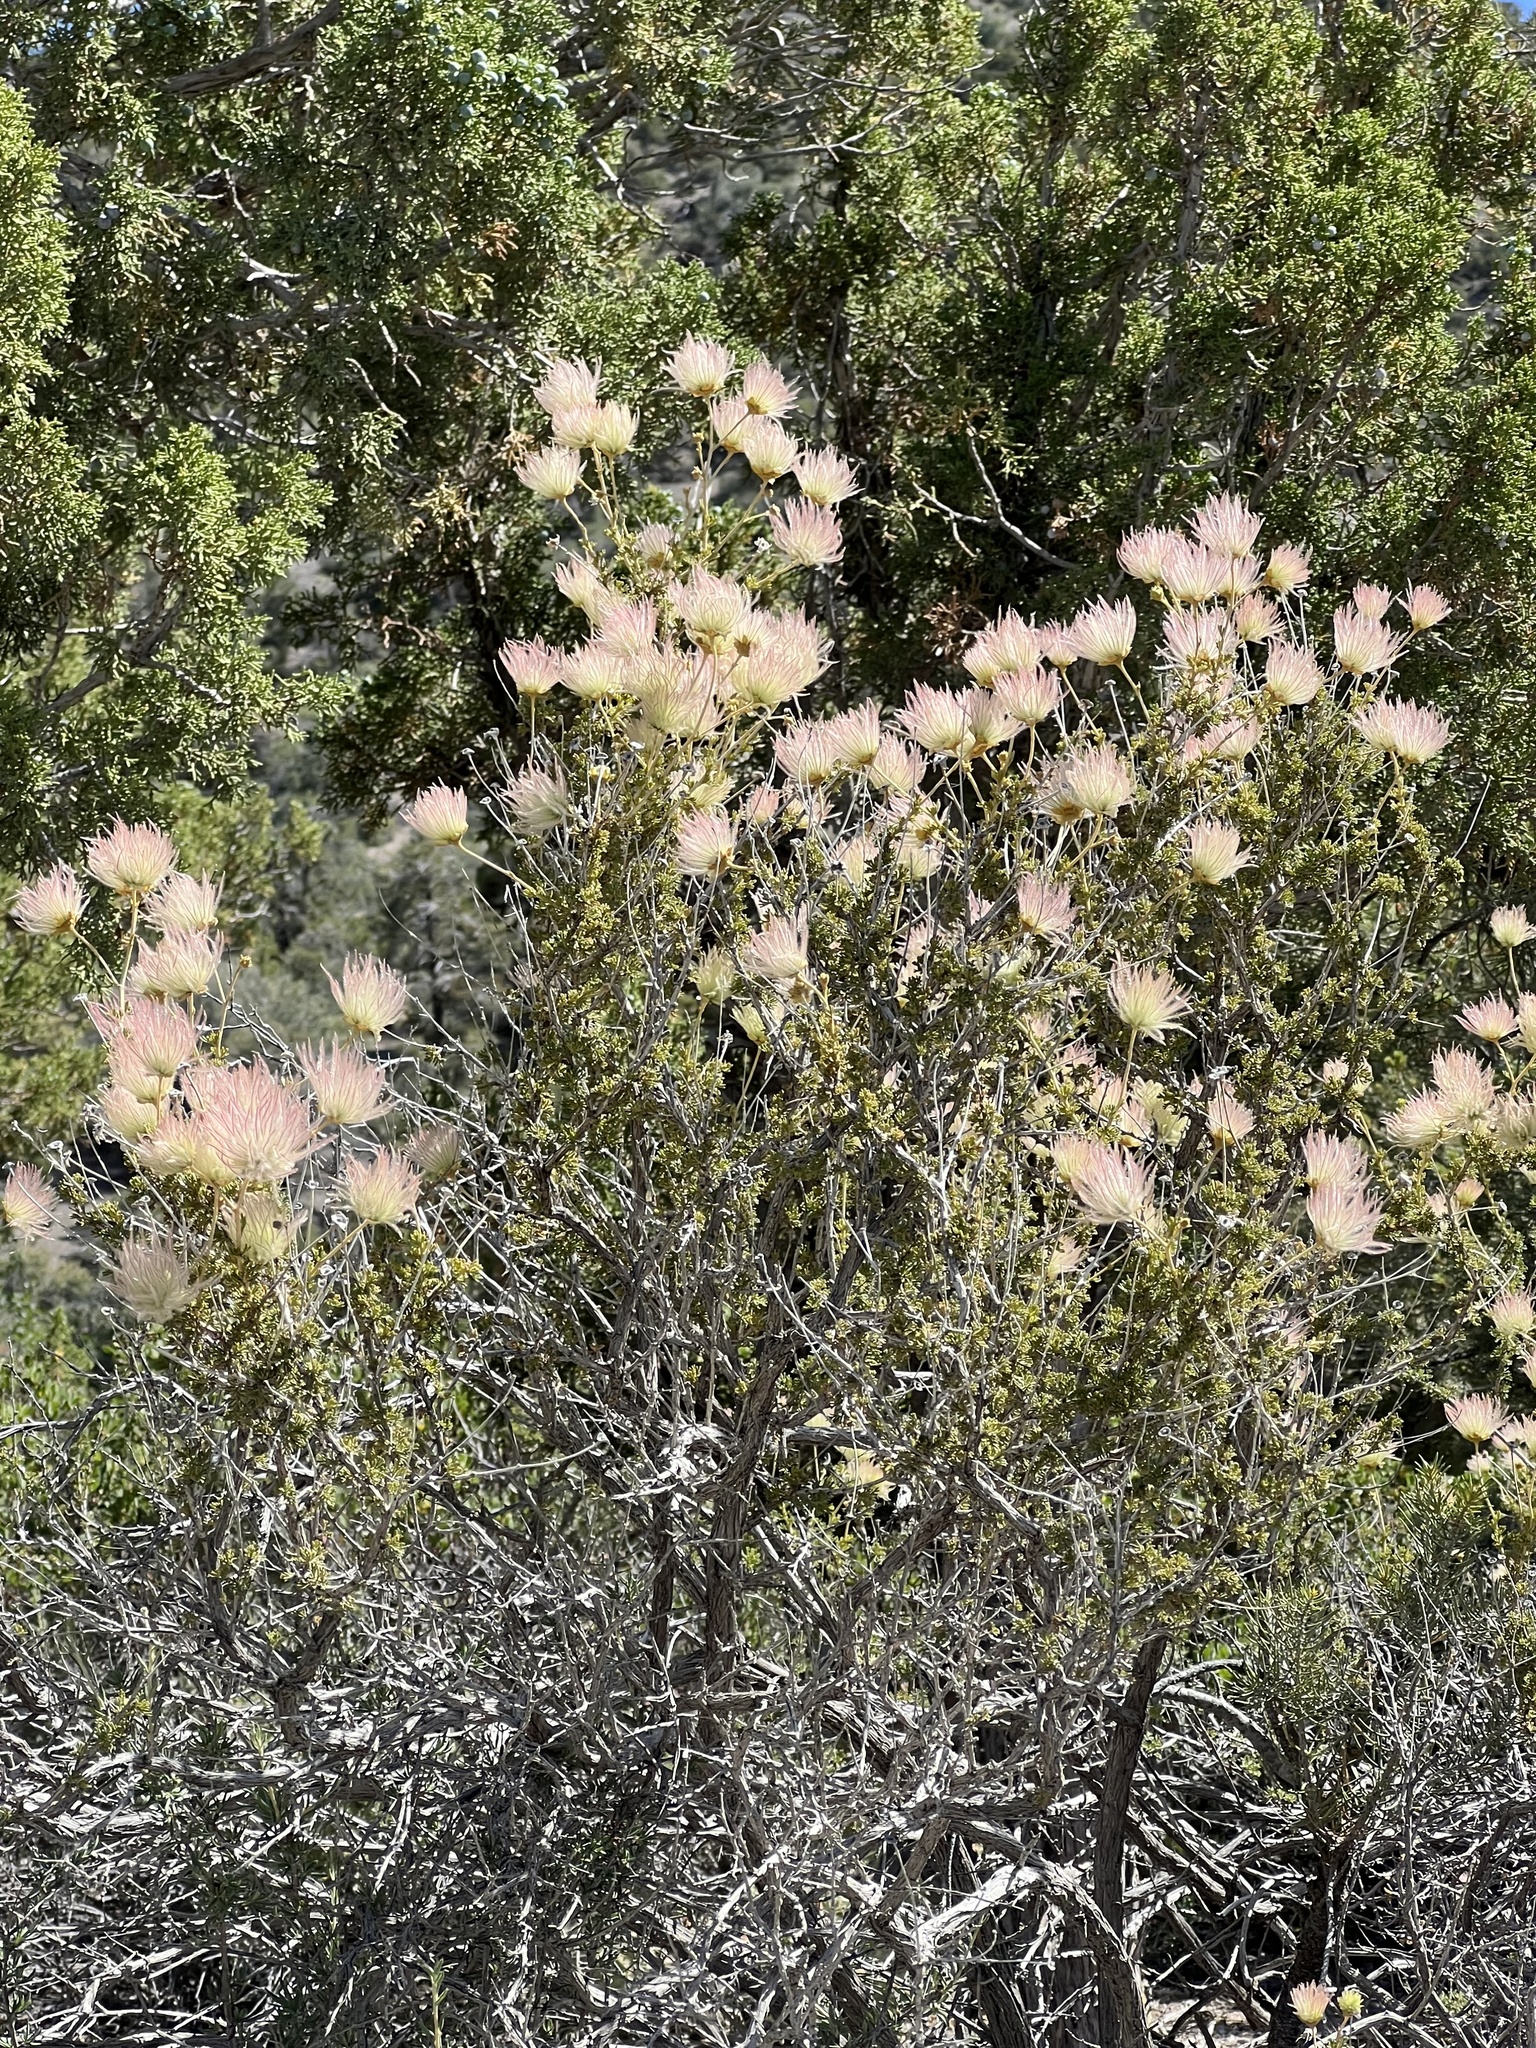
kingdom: Plantae
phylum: Tracheophyta
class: Magnoliopsida
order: Rosales
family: Rosaceae
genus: Fallugia
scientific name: Fallugia paradoxa
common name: Apache-plume
